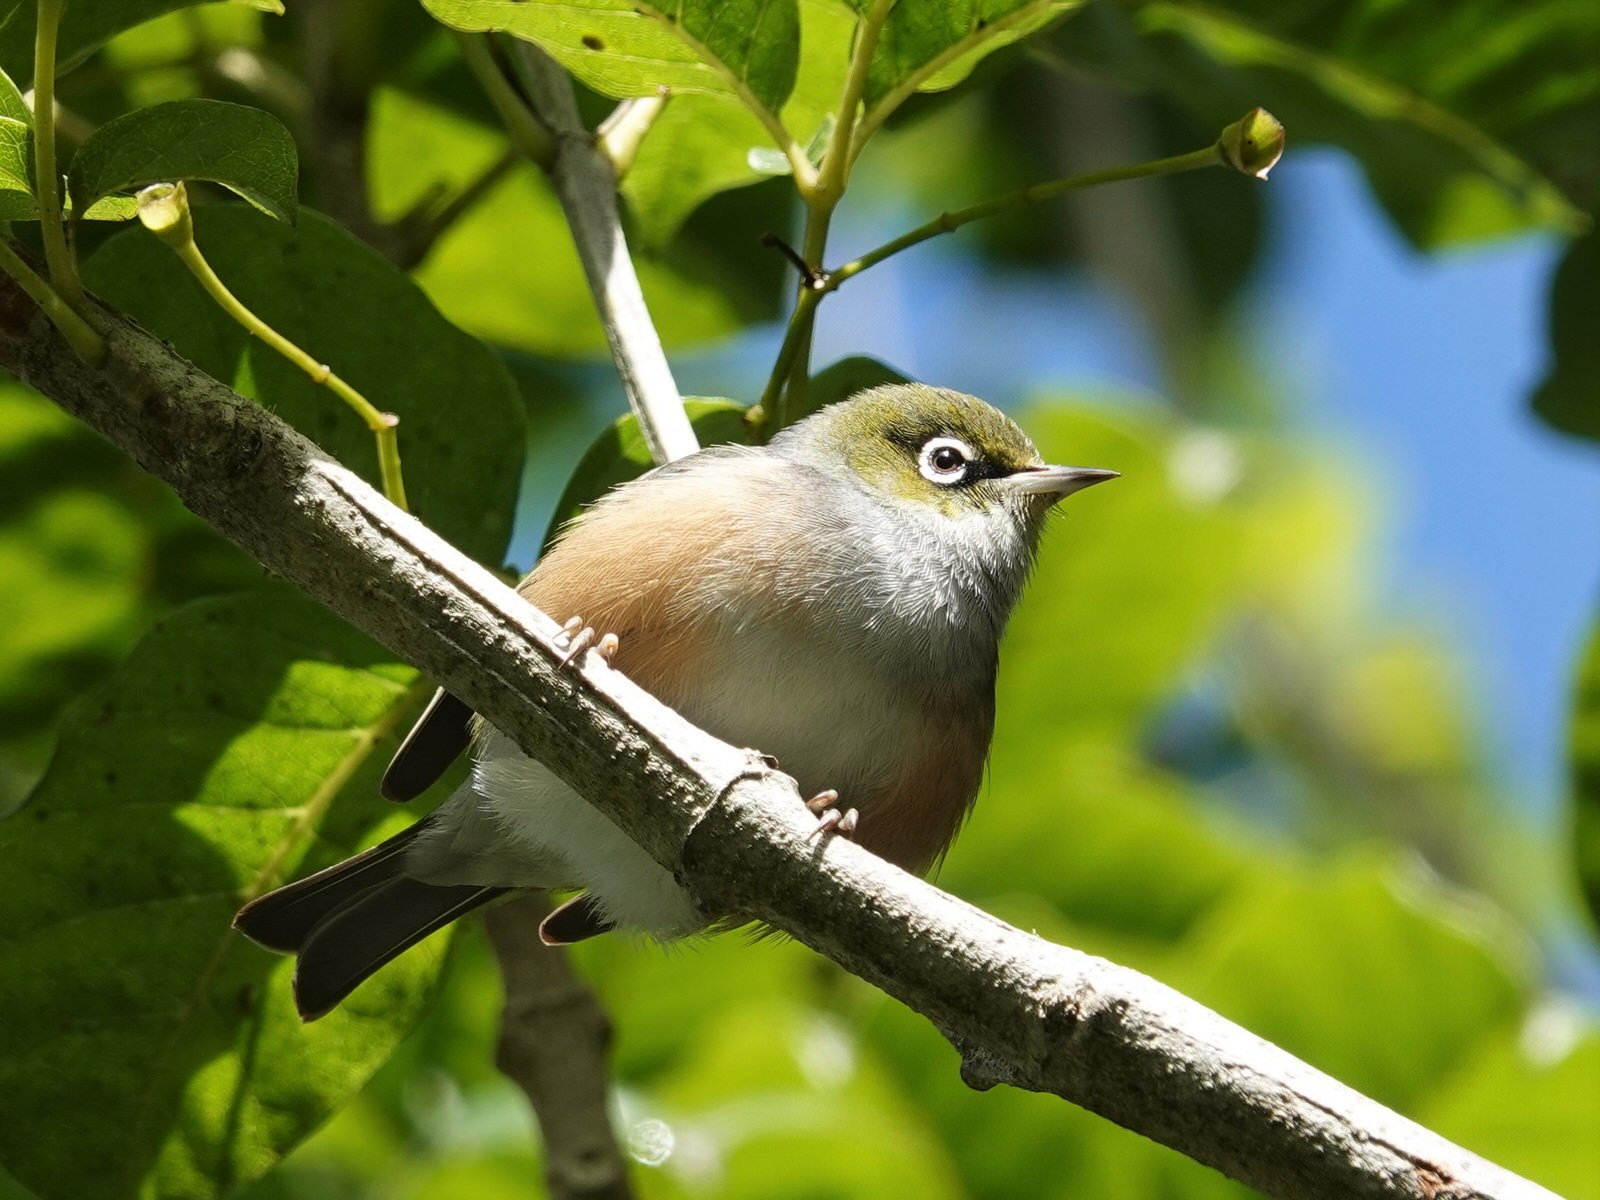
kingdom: Animalia
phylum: Chordata
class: Aves
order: Passeriformes
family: Zosteropidae
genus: Zosterops
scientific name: Zosterops lateralis
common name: Silvereye
